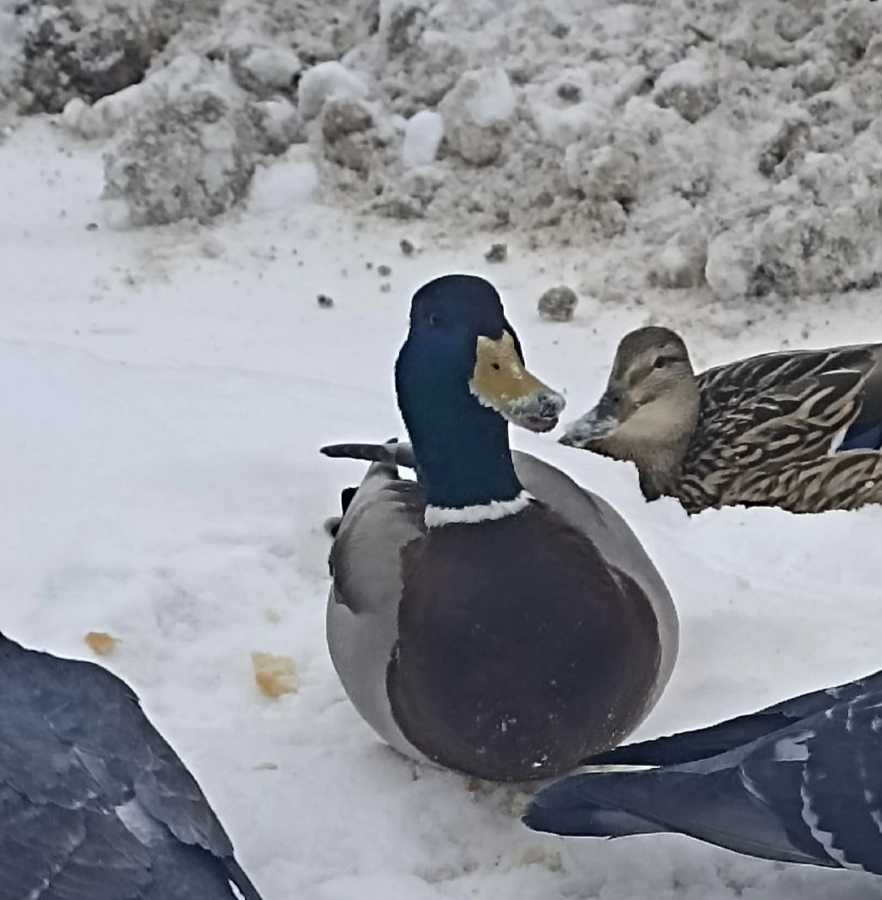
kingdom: Animalia
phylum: Chordata
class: Aves
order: Anseriformes
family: Anatidae
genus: Anas
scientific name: Anas platyrhynchos
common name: Mallard
